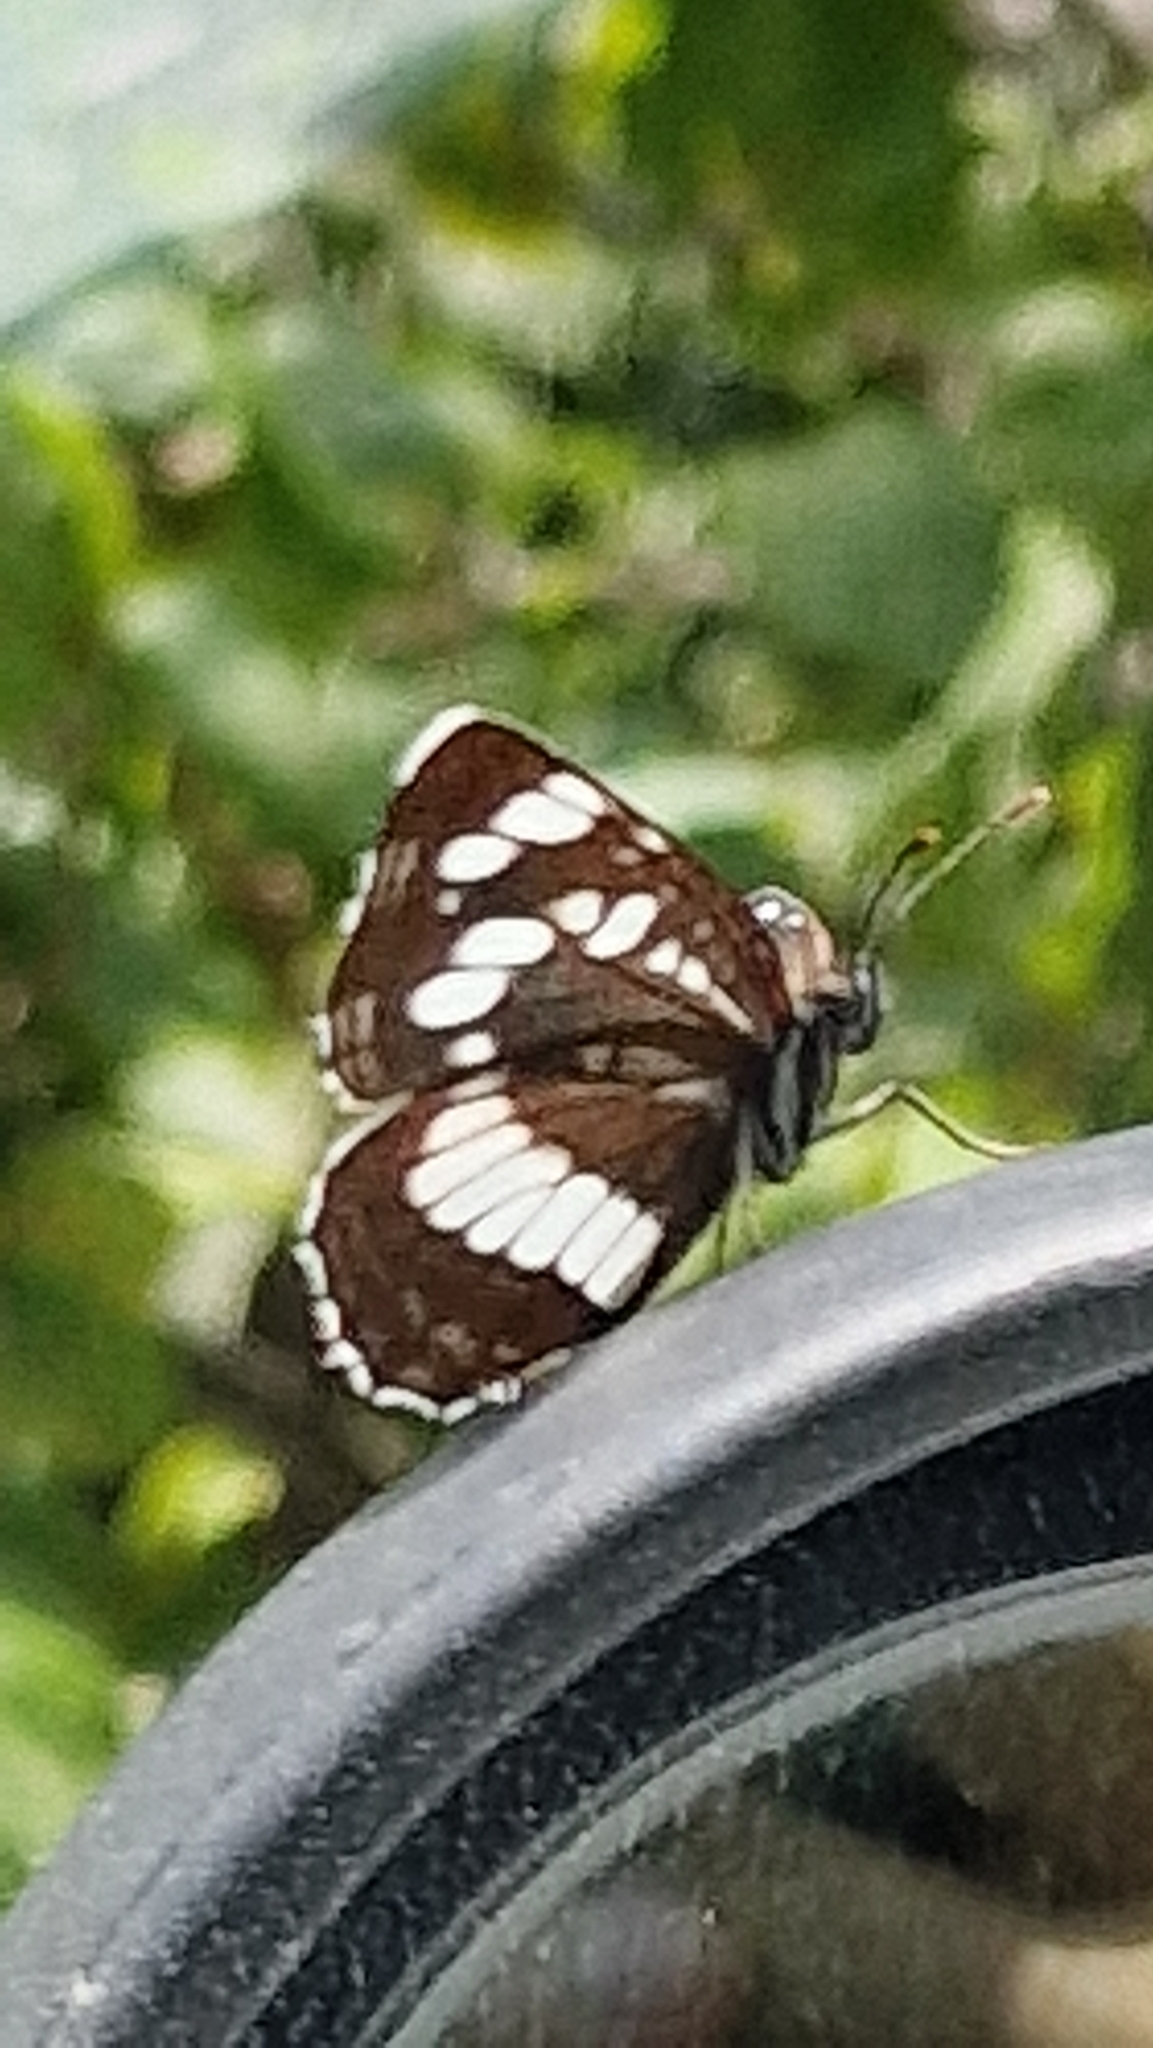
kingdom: Animalia
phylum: Arthropoda
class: Insecta
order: Lepidoptera
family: Nymphalidae
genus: Neptis
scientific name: Neptis rivularis
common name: Hungarian glider
